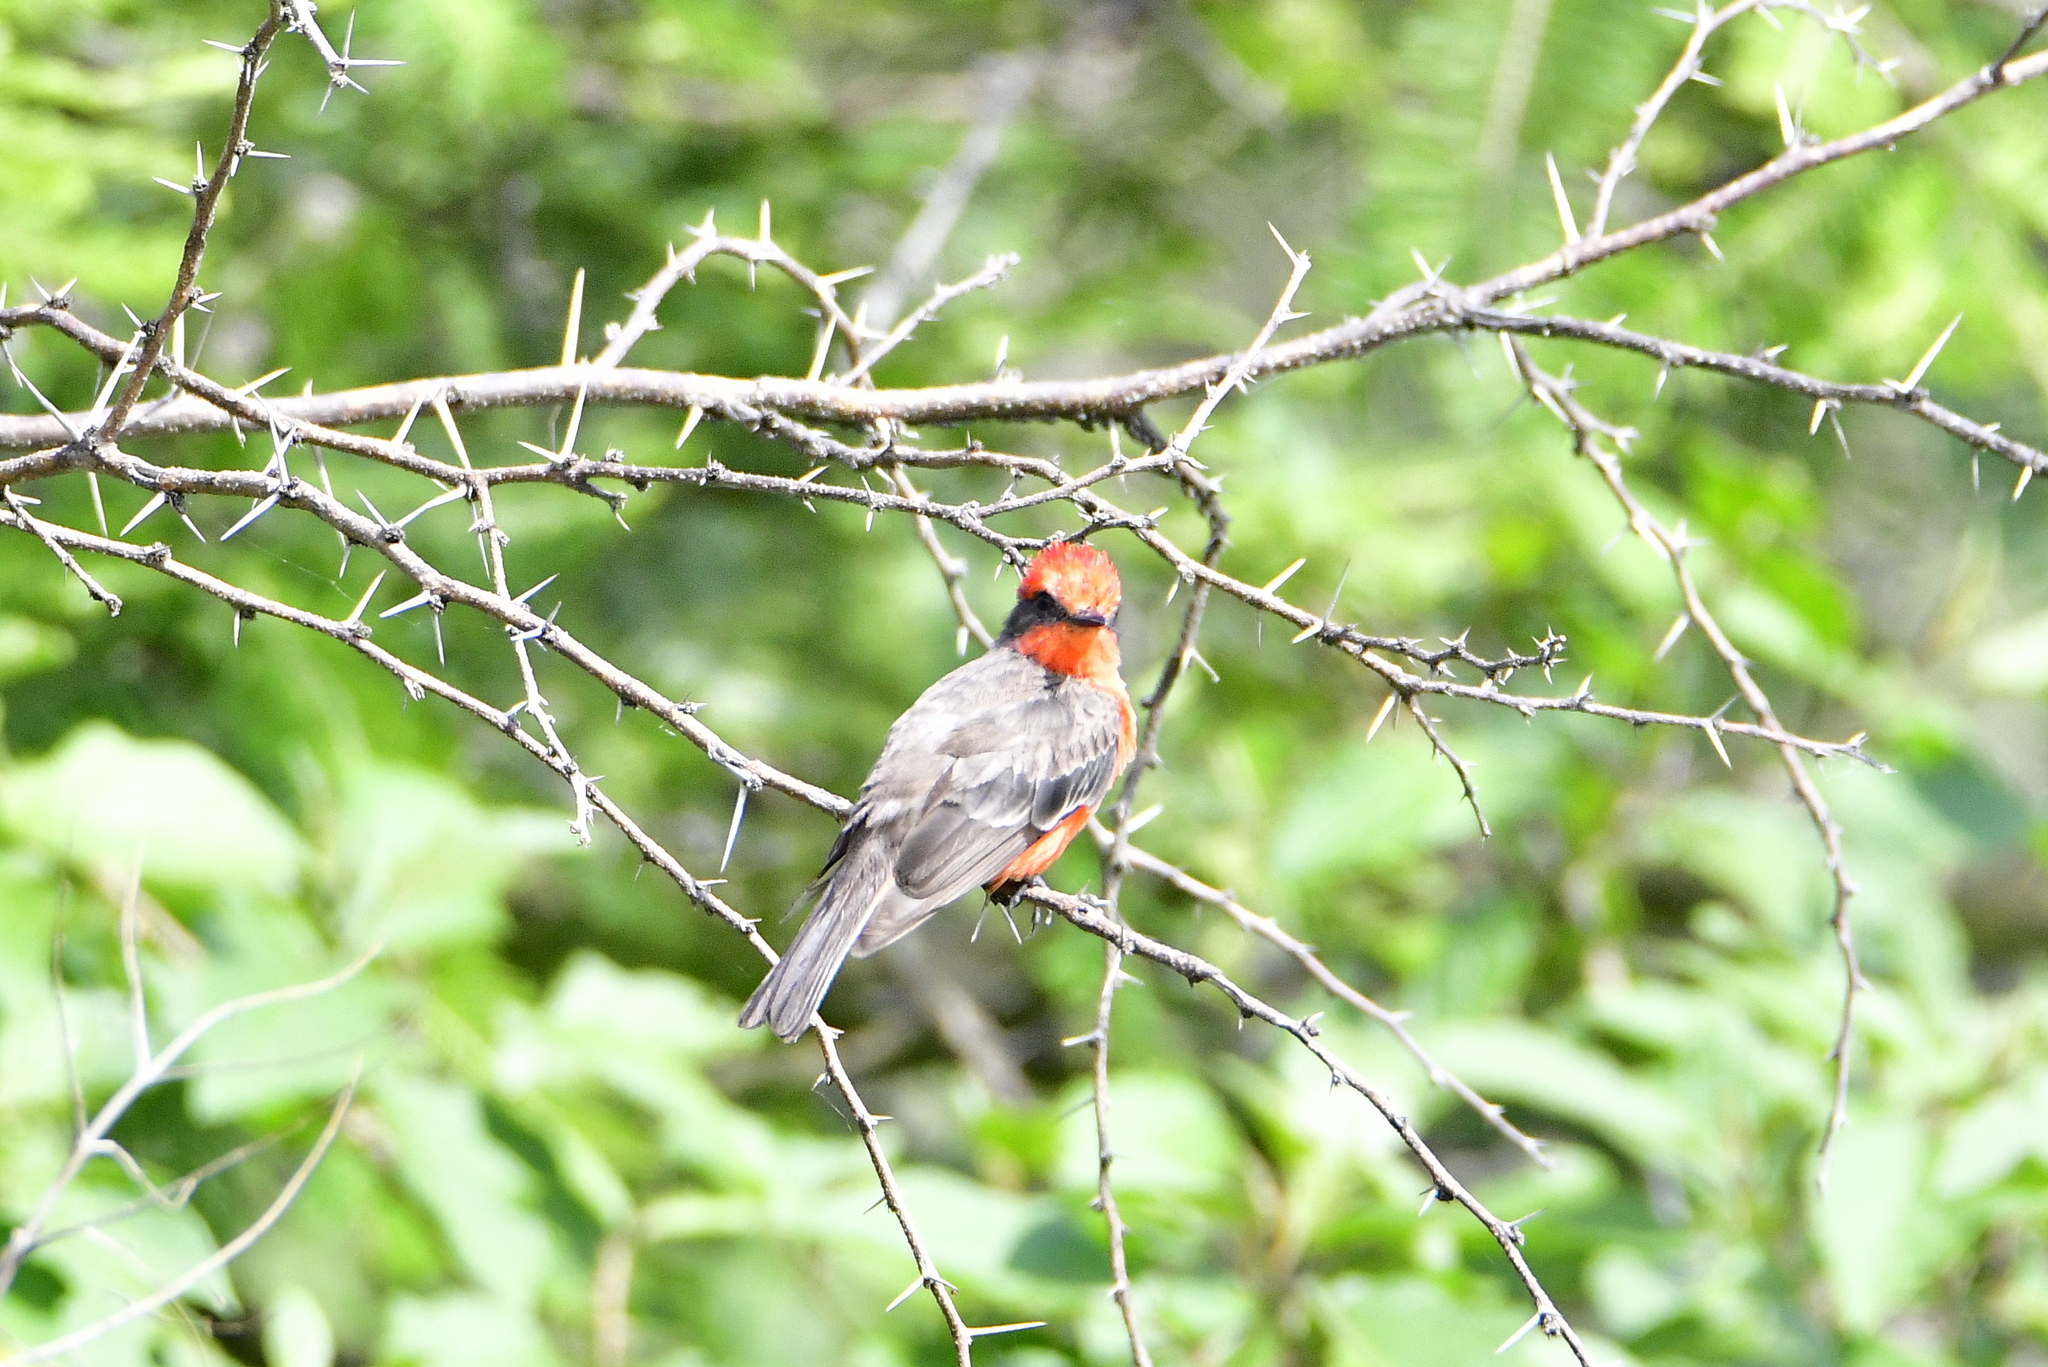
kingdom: Animalia
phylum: Chordata
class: Aves
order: Passeriformes
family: Tyrannidae
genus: Pyrocephalus
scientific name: Pyrocephalus rubinus
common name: Vermilion flycatcher
